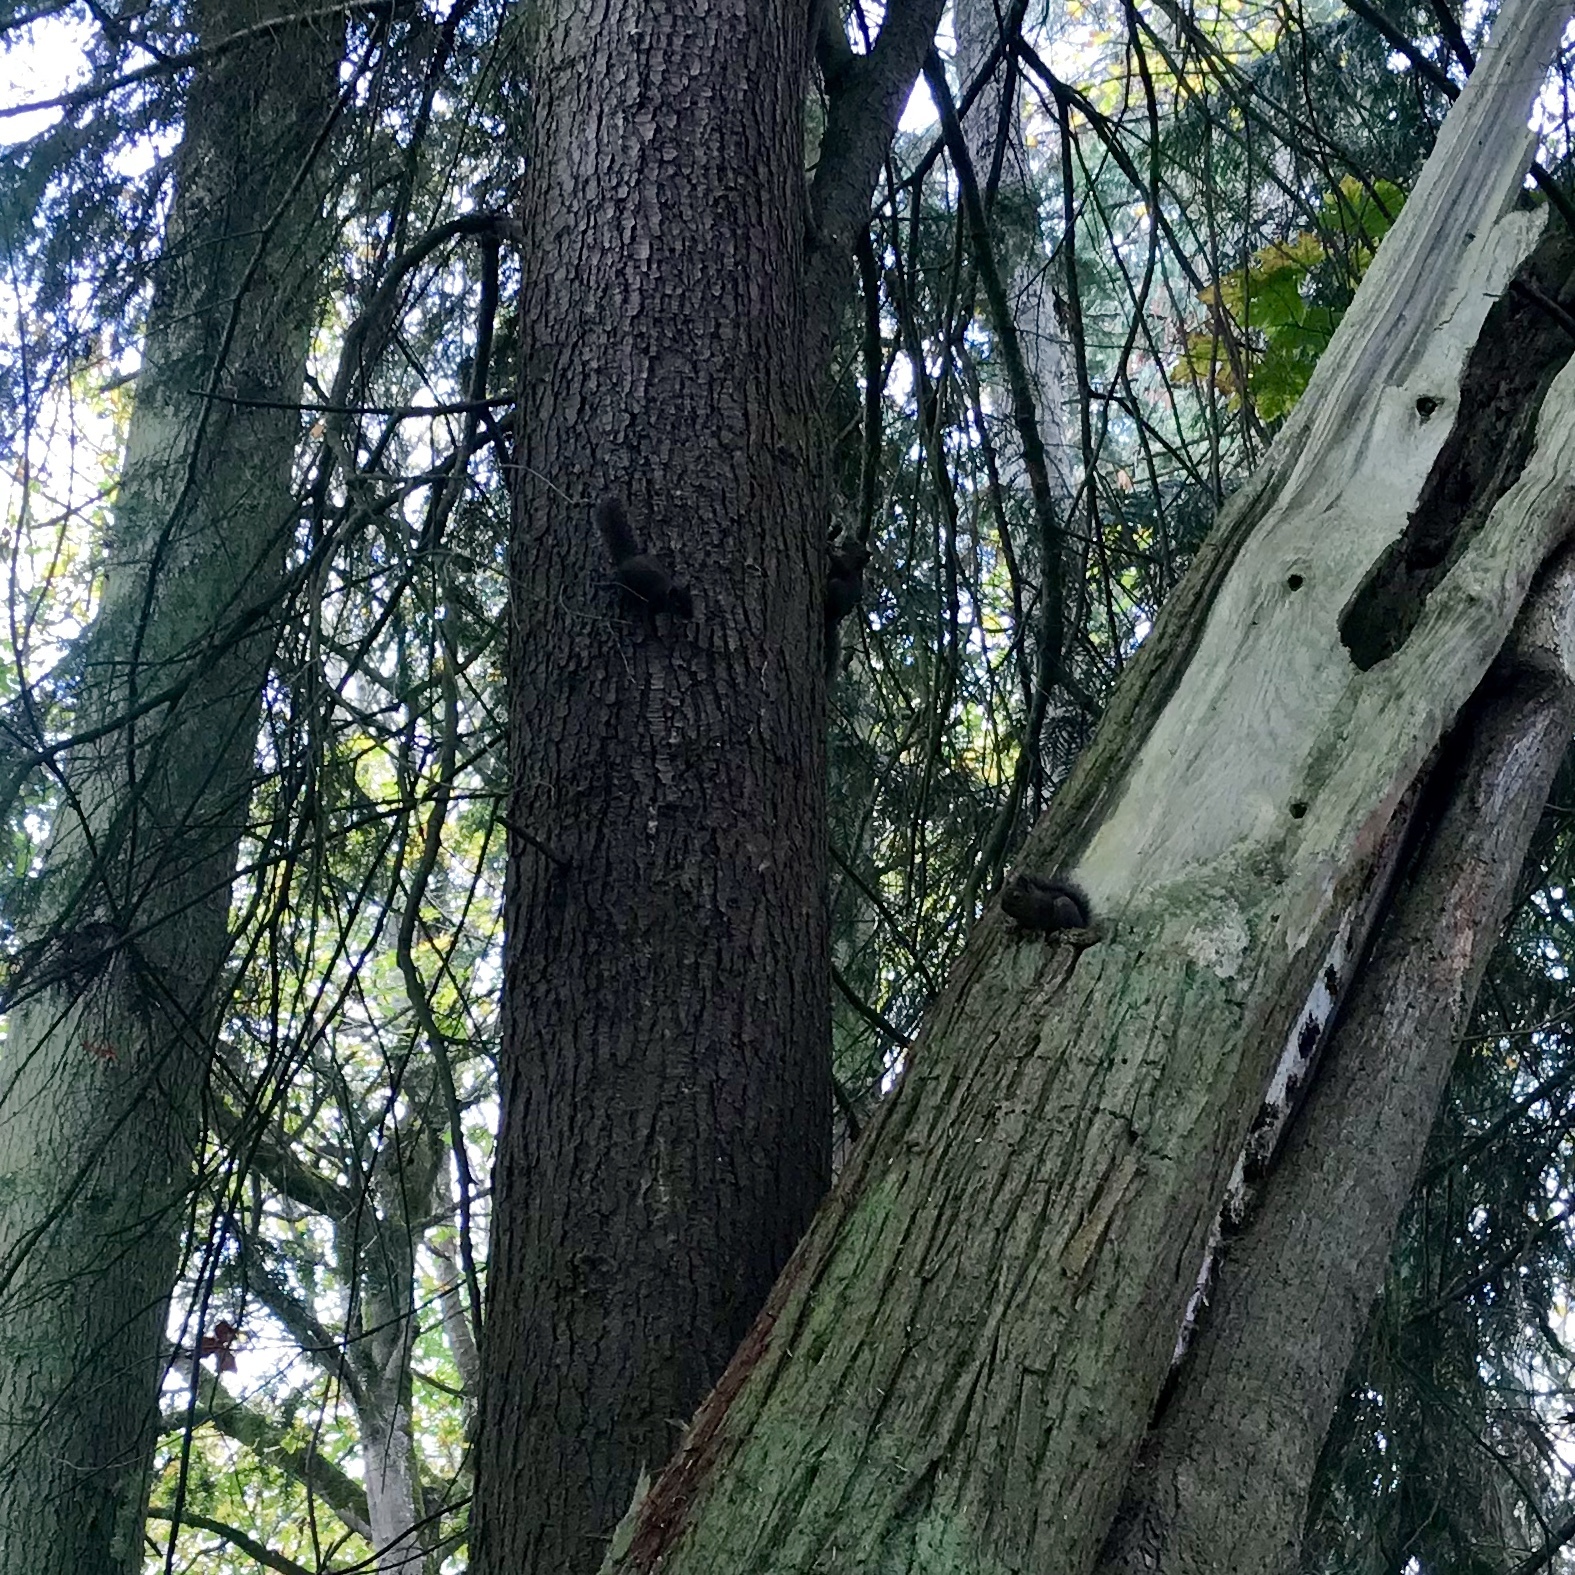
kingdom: Animalia
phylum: Chordata
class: Mammalia
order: Rodentia
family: Sciuridae
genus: Tamiasciurus
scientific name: Tamiasciurus douglasii
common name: Douglas's squirrel
